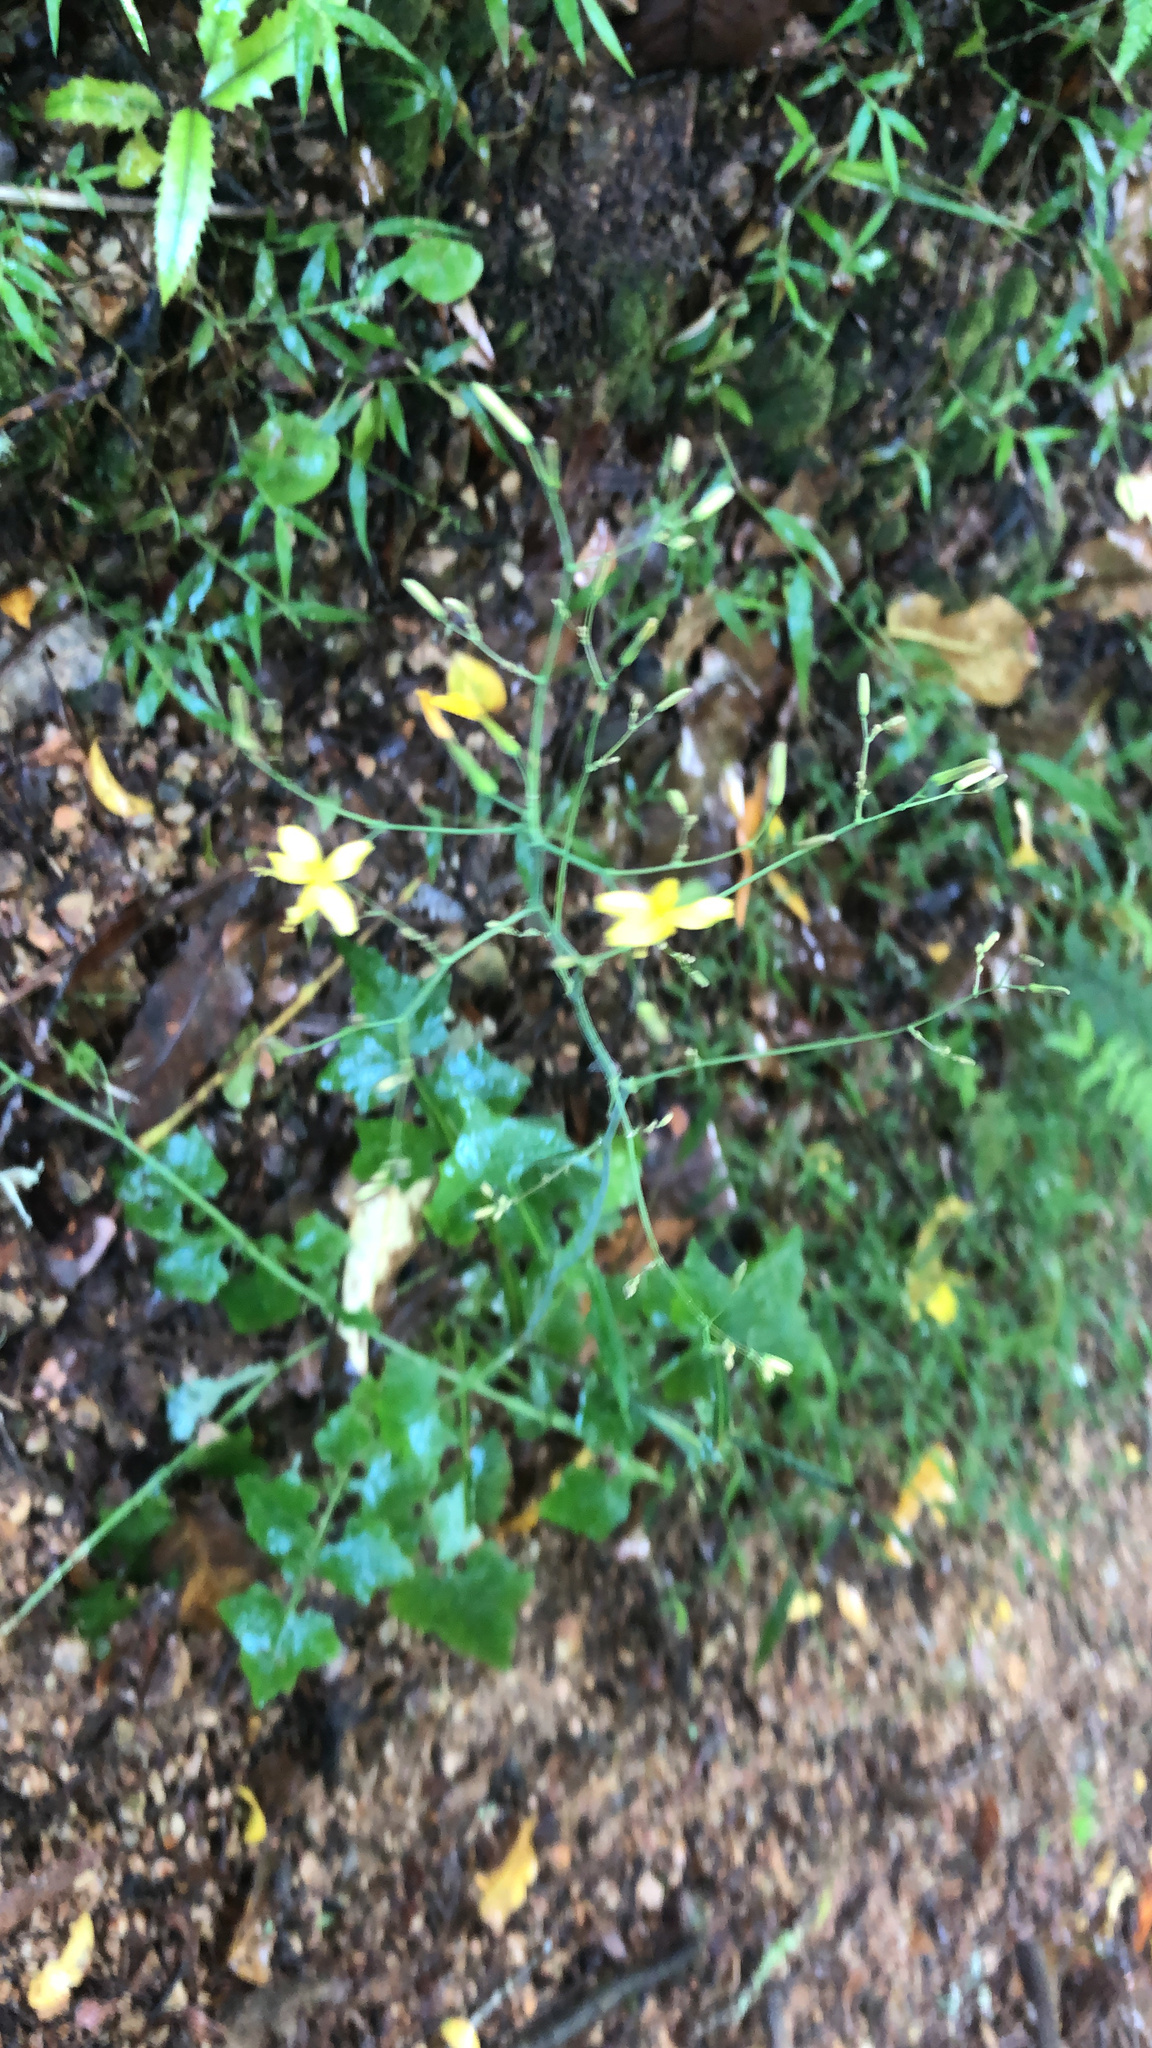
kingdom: Plantae
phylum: Tracheophyta
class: Magnoliopsida
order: Asterales
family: Asteraceae
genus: Mycelis
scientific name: Mycelis muralis
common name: Wall lettuce
